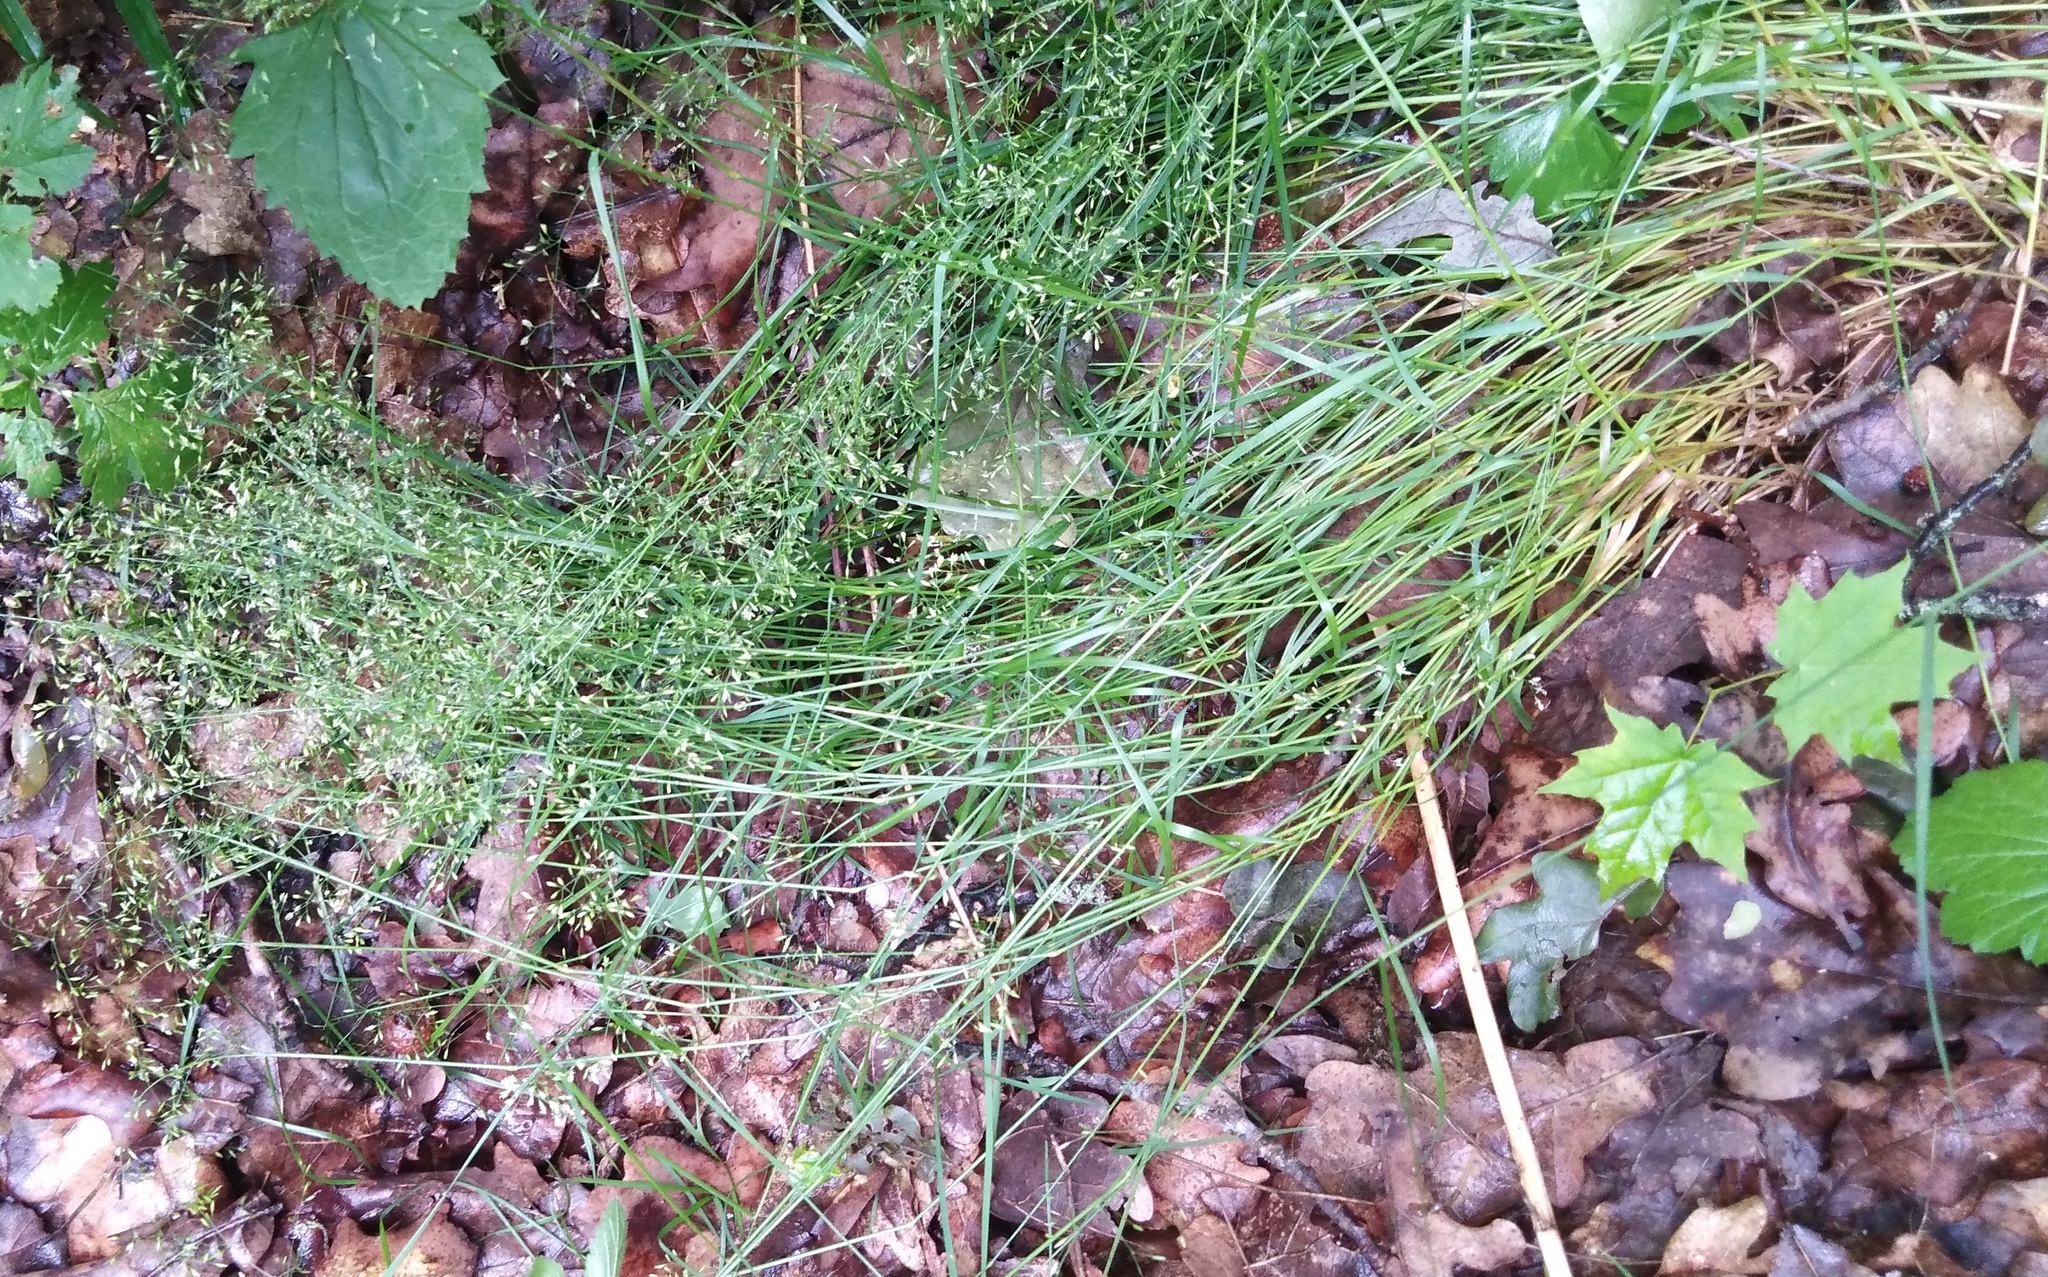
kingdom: Plantae
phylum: Tracheophyta
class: Liliopsida
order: Poales
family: Poaceae
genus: Poa
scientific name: Poa nemoralis
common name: Wood bluegrass
